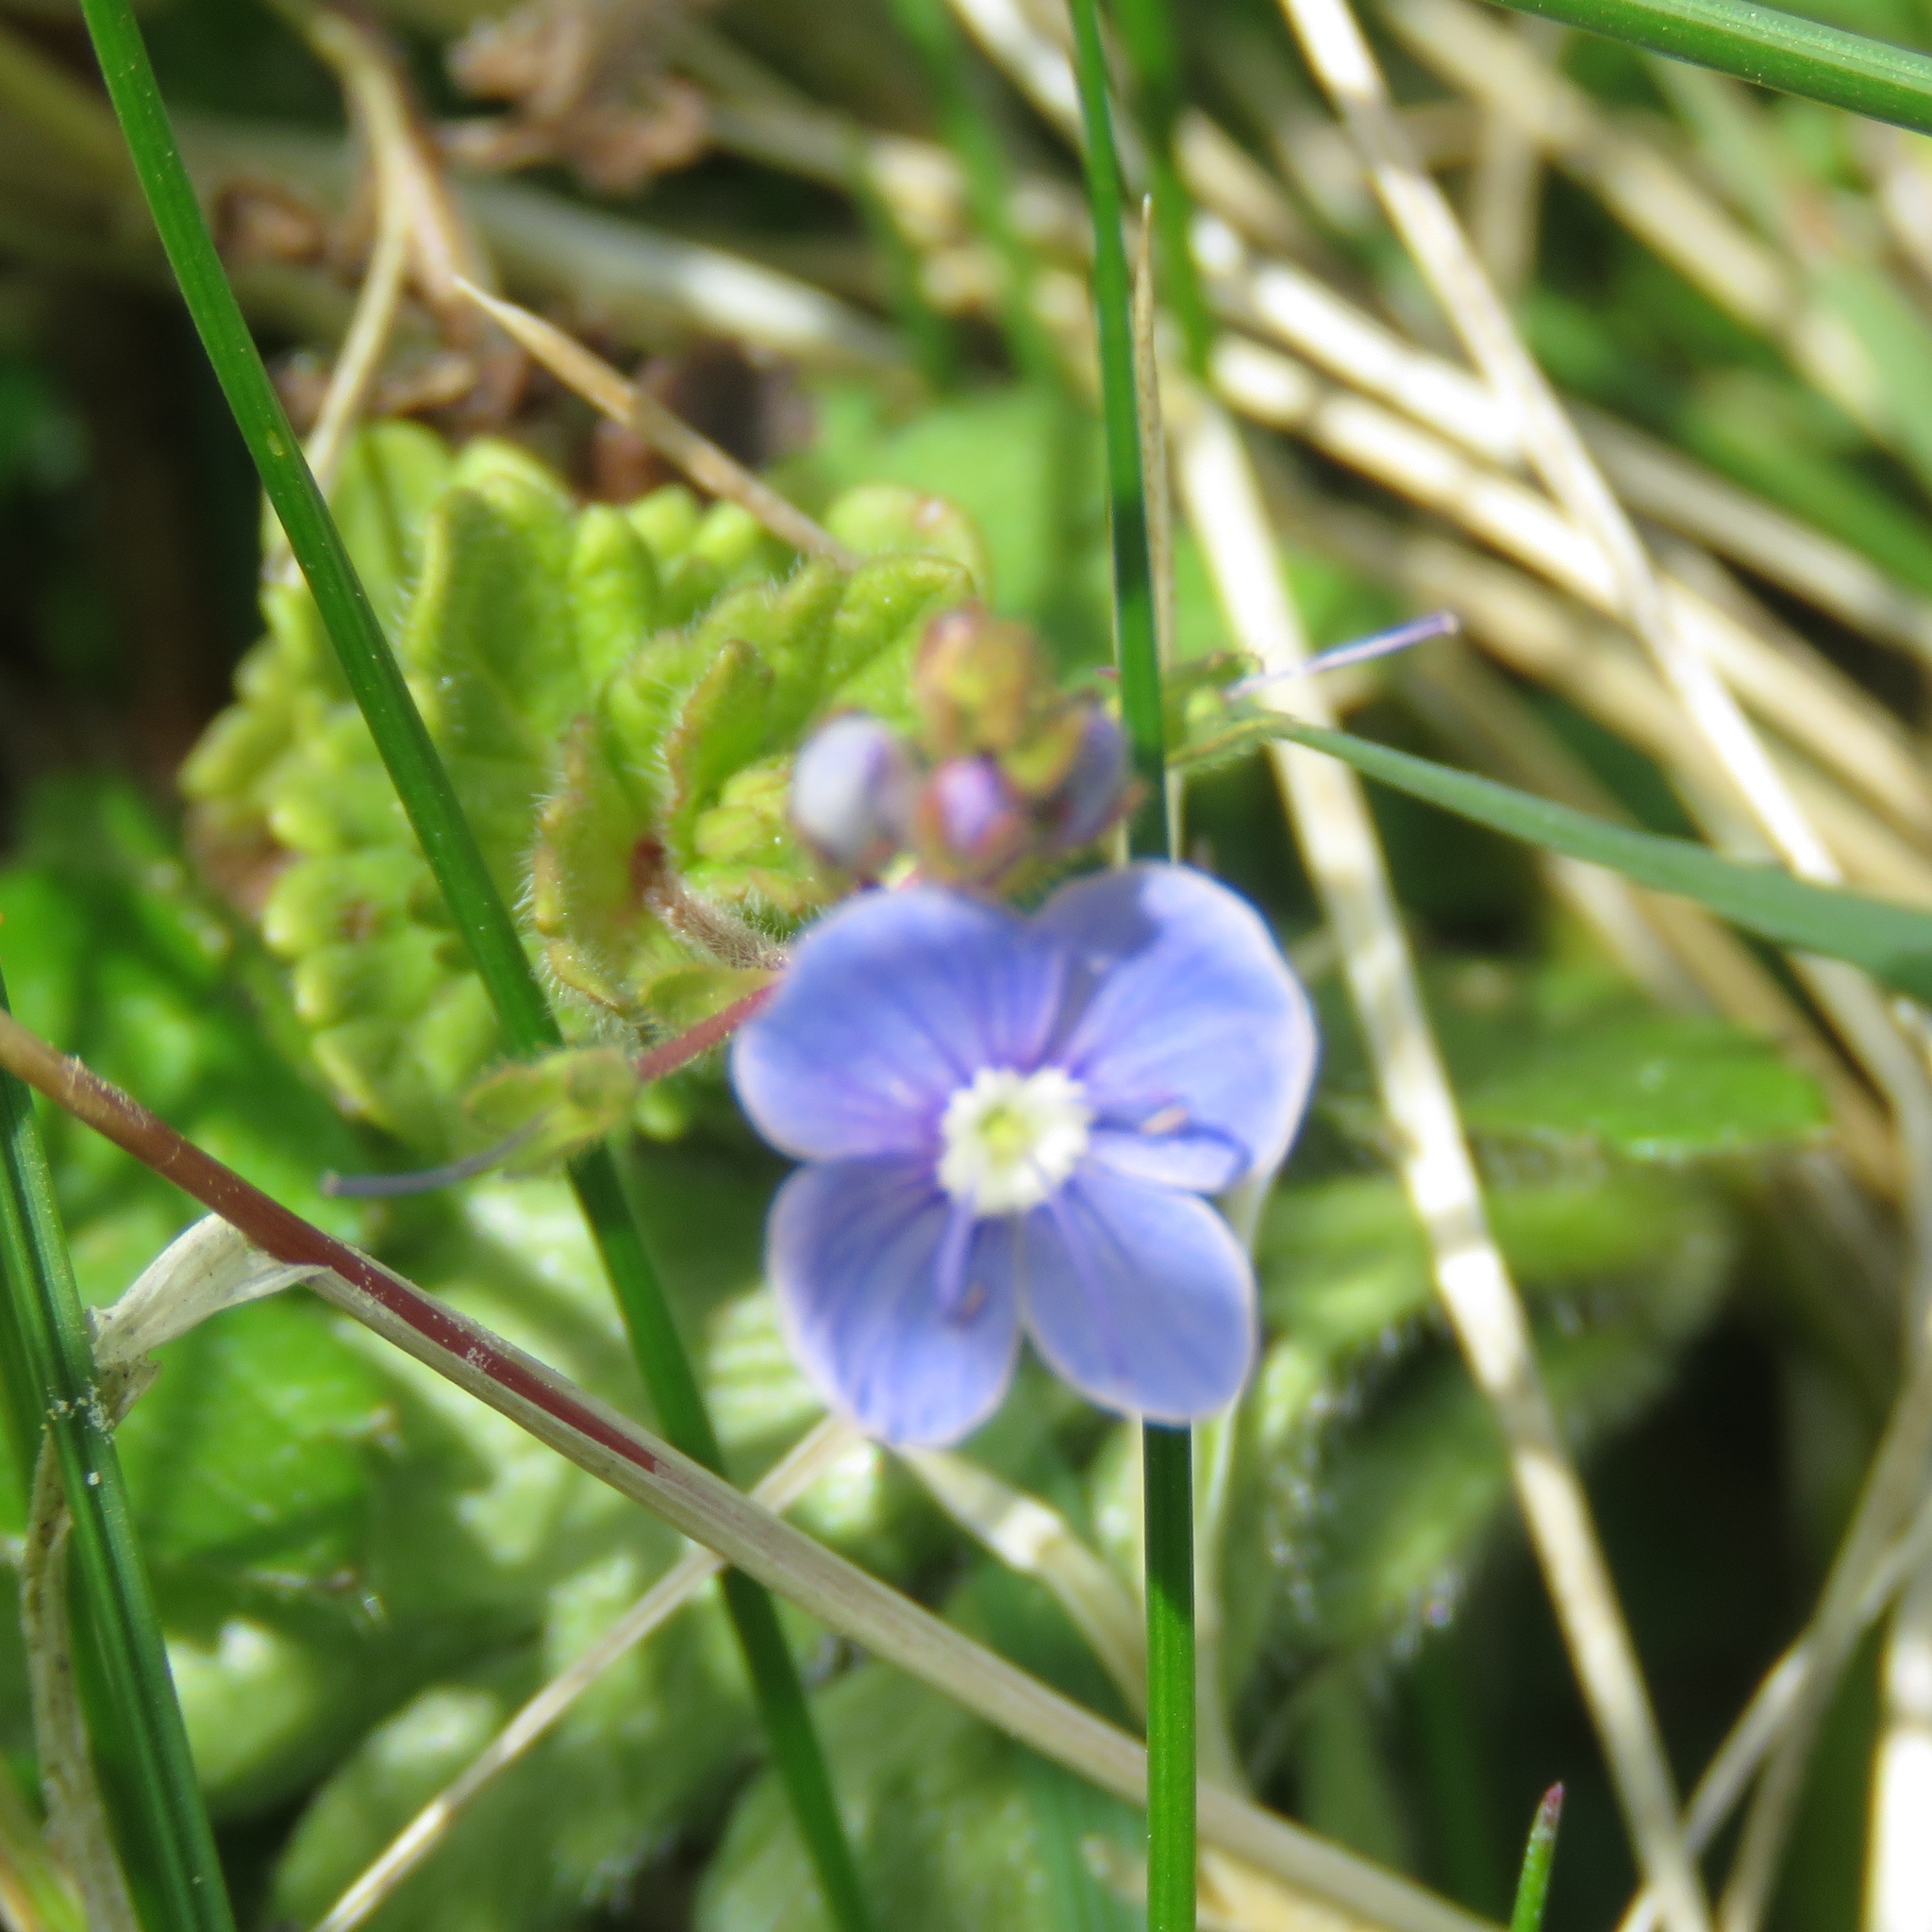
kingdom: Plantae
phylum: Tracheophyta
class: Magnoliopsida
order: Lamiales
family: Plantaginaceae
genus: Veronica
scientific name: Veronica chamaedrys
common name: Germander speedwell
